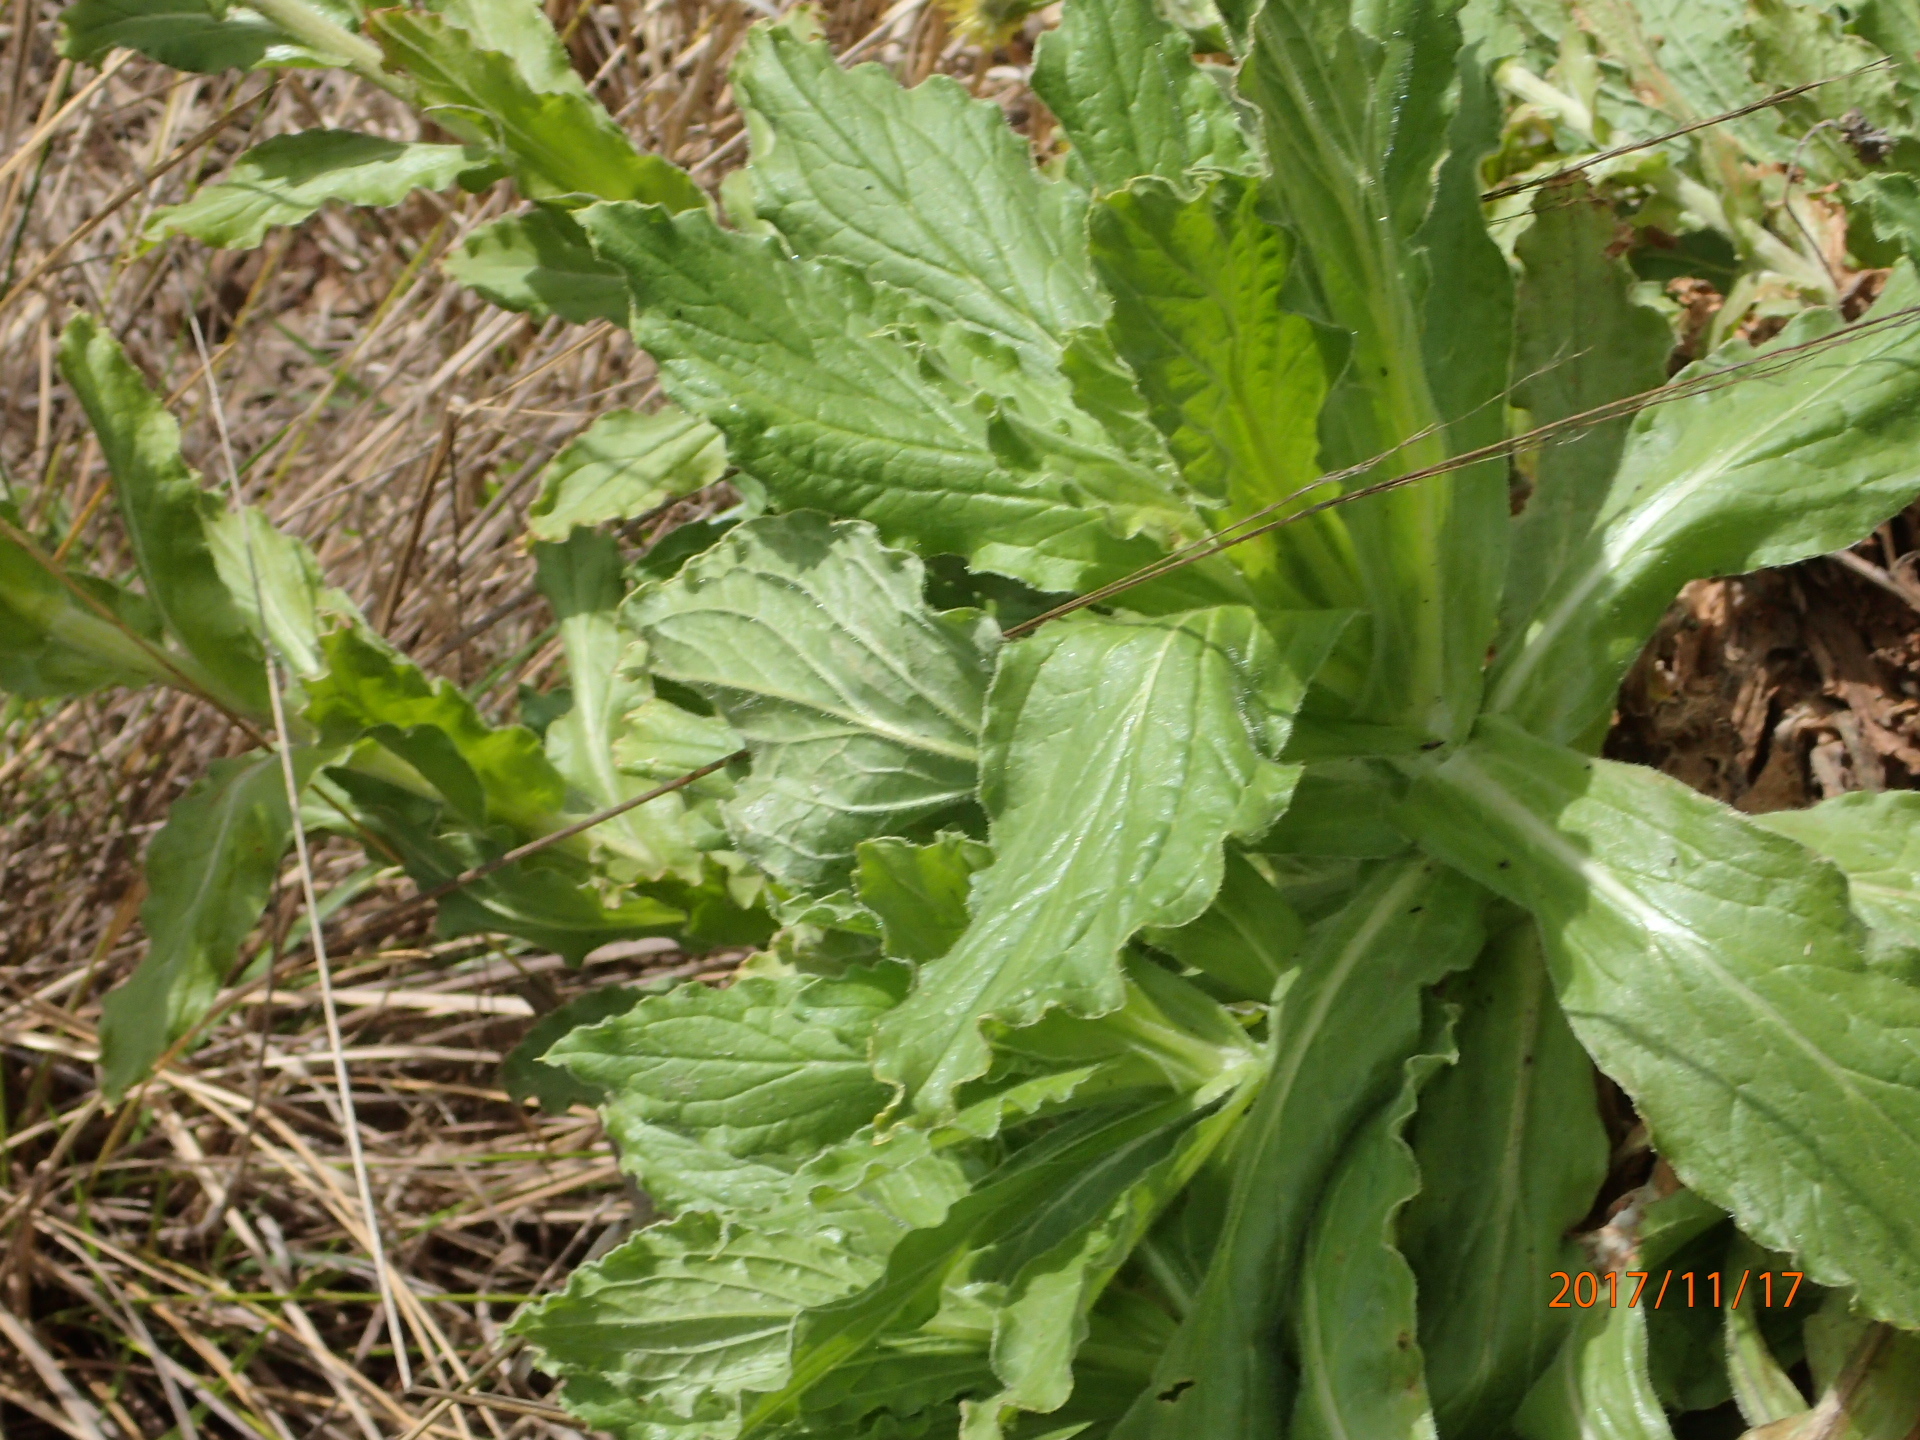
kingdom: Plantae
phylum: Tracheophyta
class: Magnoliopsida
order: Asterales
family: Asteraceae
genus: Helichrysum
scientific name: Helichrysum tenax
